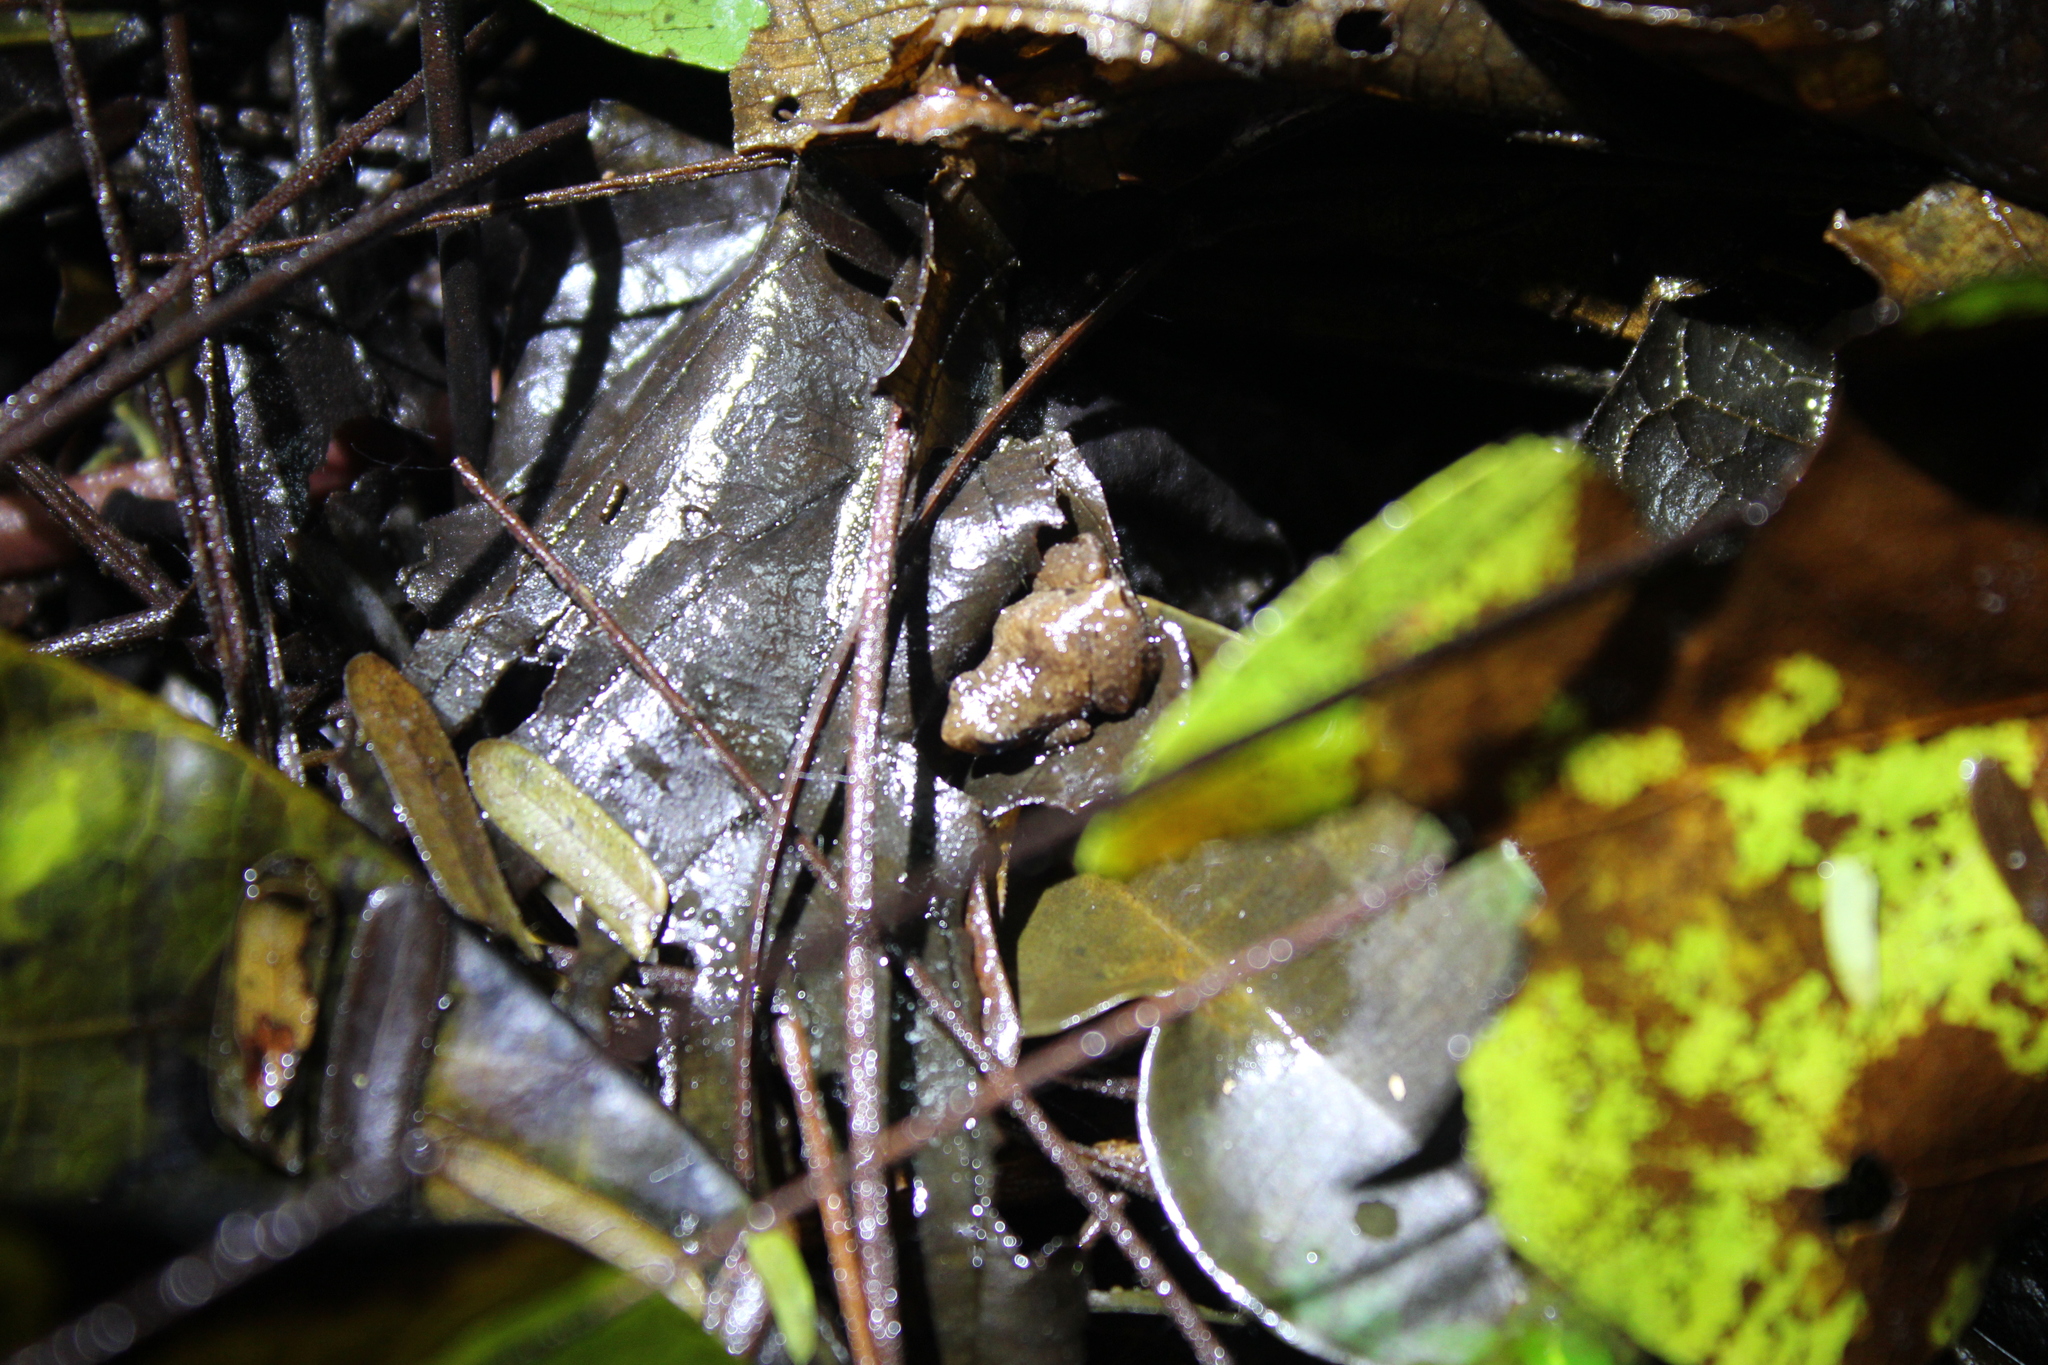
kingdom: Animalia
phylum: Chordata
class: Amphibia
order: Anura
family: Craugastoridae
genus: Noblella
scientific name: Noblella myrmecoides
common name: Loreto leaf frog
